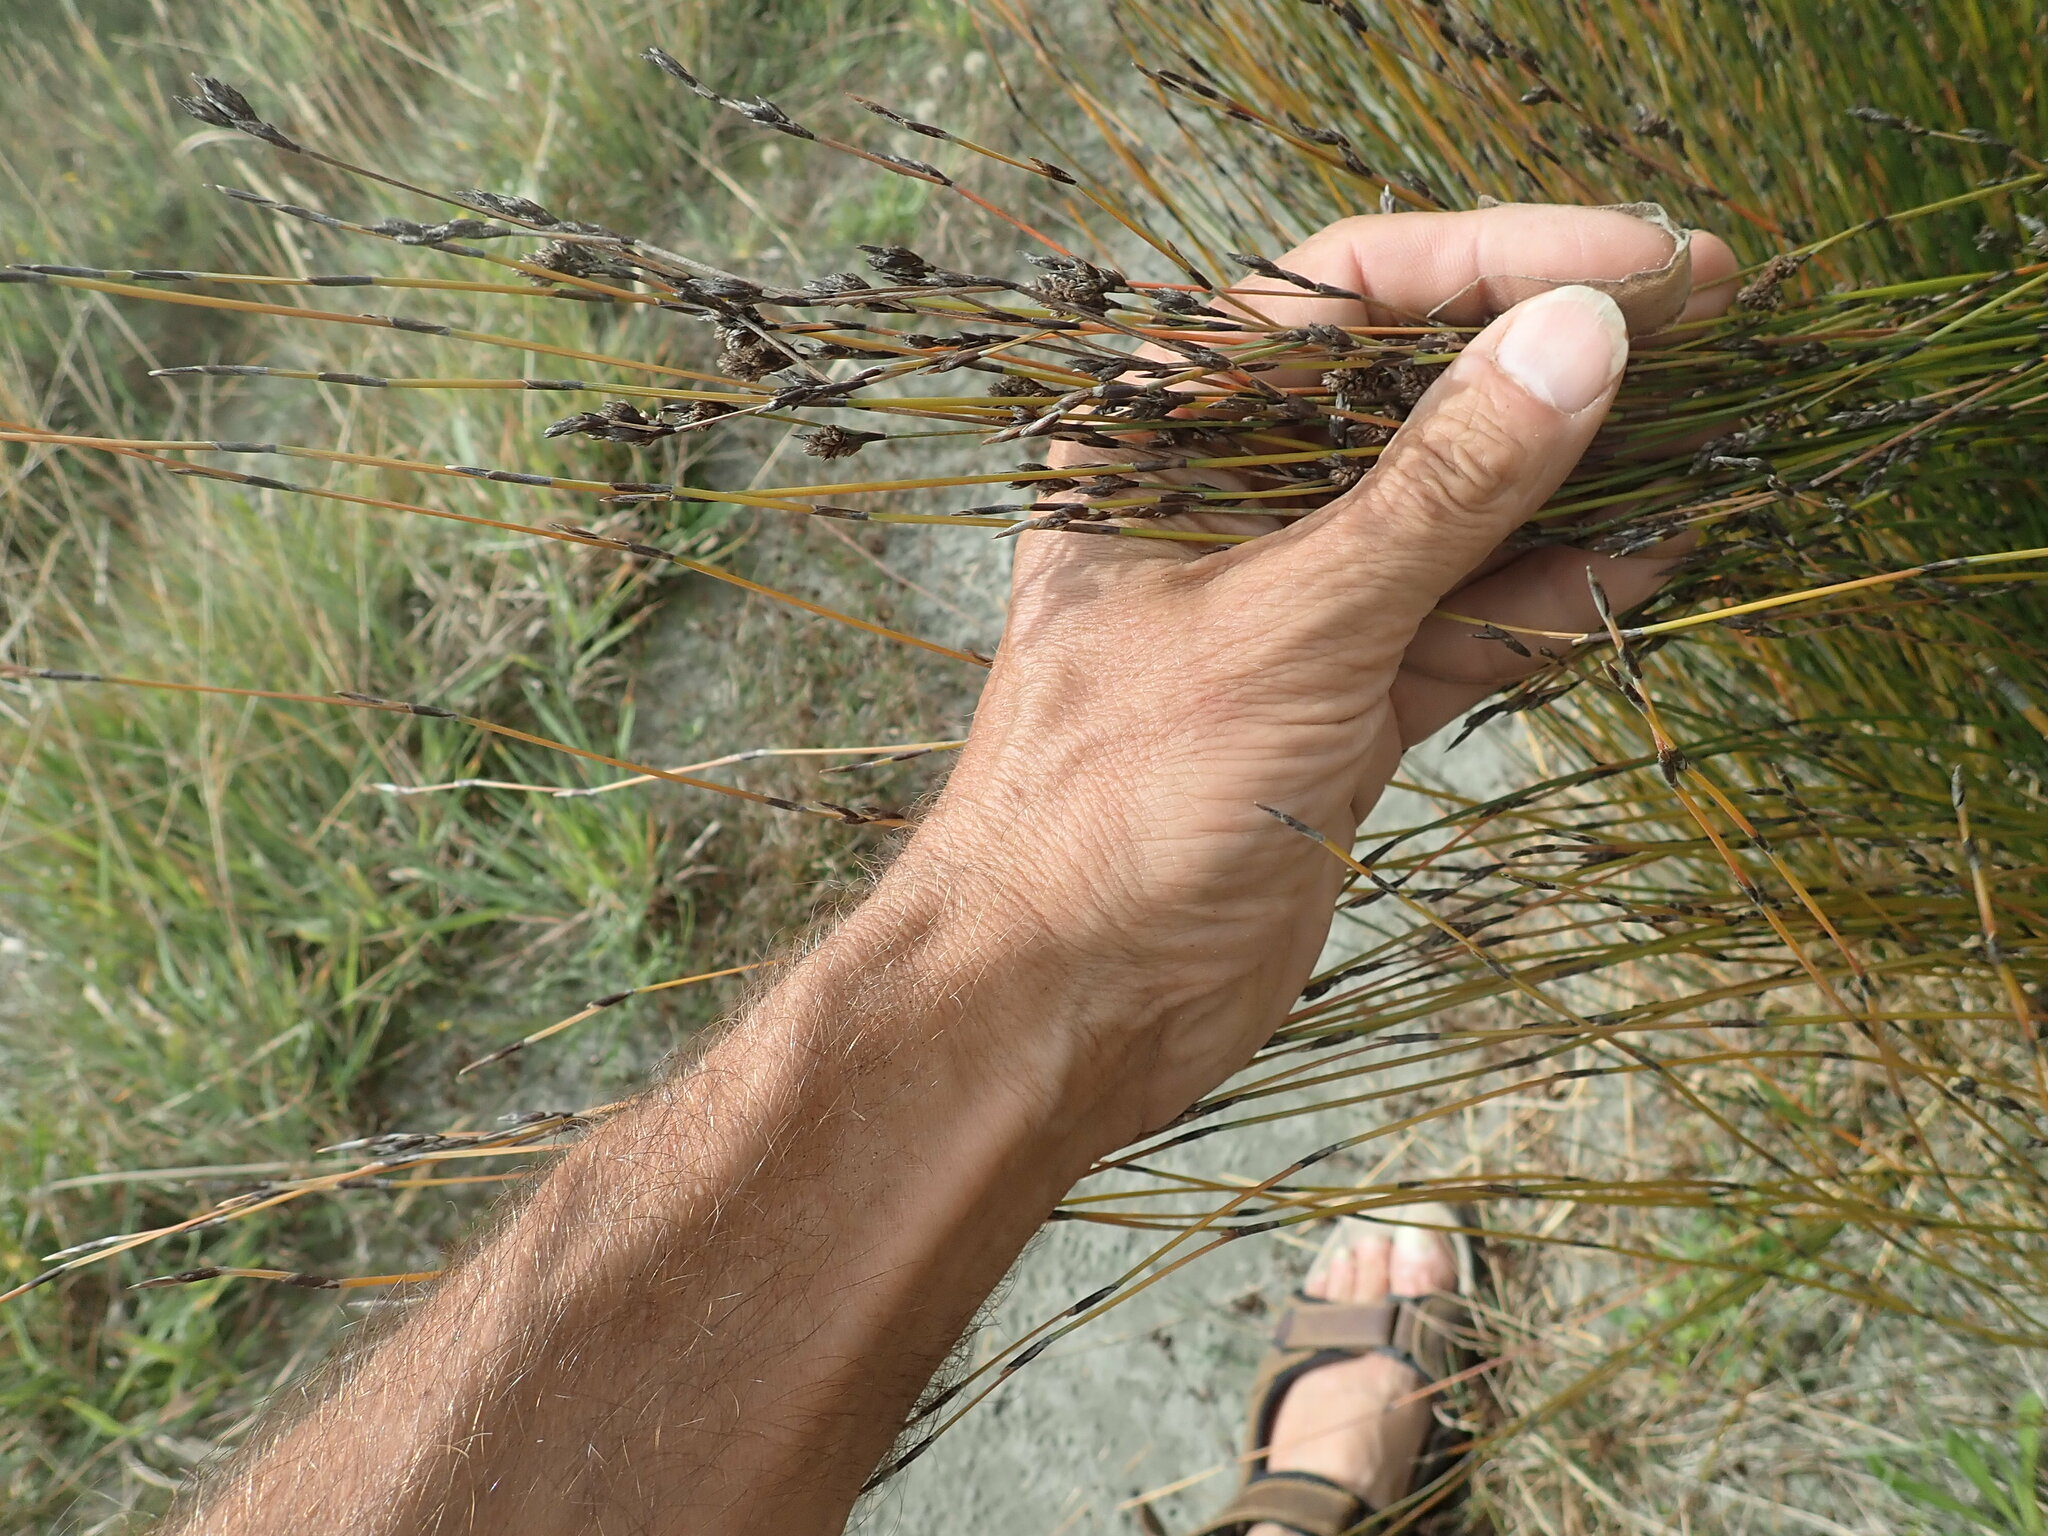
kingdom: Plantae
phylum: Tracheophyta
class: Liliopsida
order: Poales
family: Restionaceae
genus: Apodasmia
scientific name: Apodasmia similis
